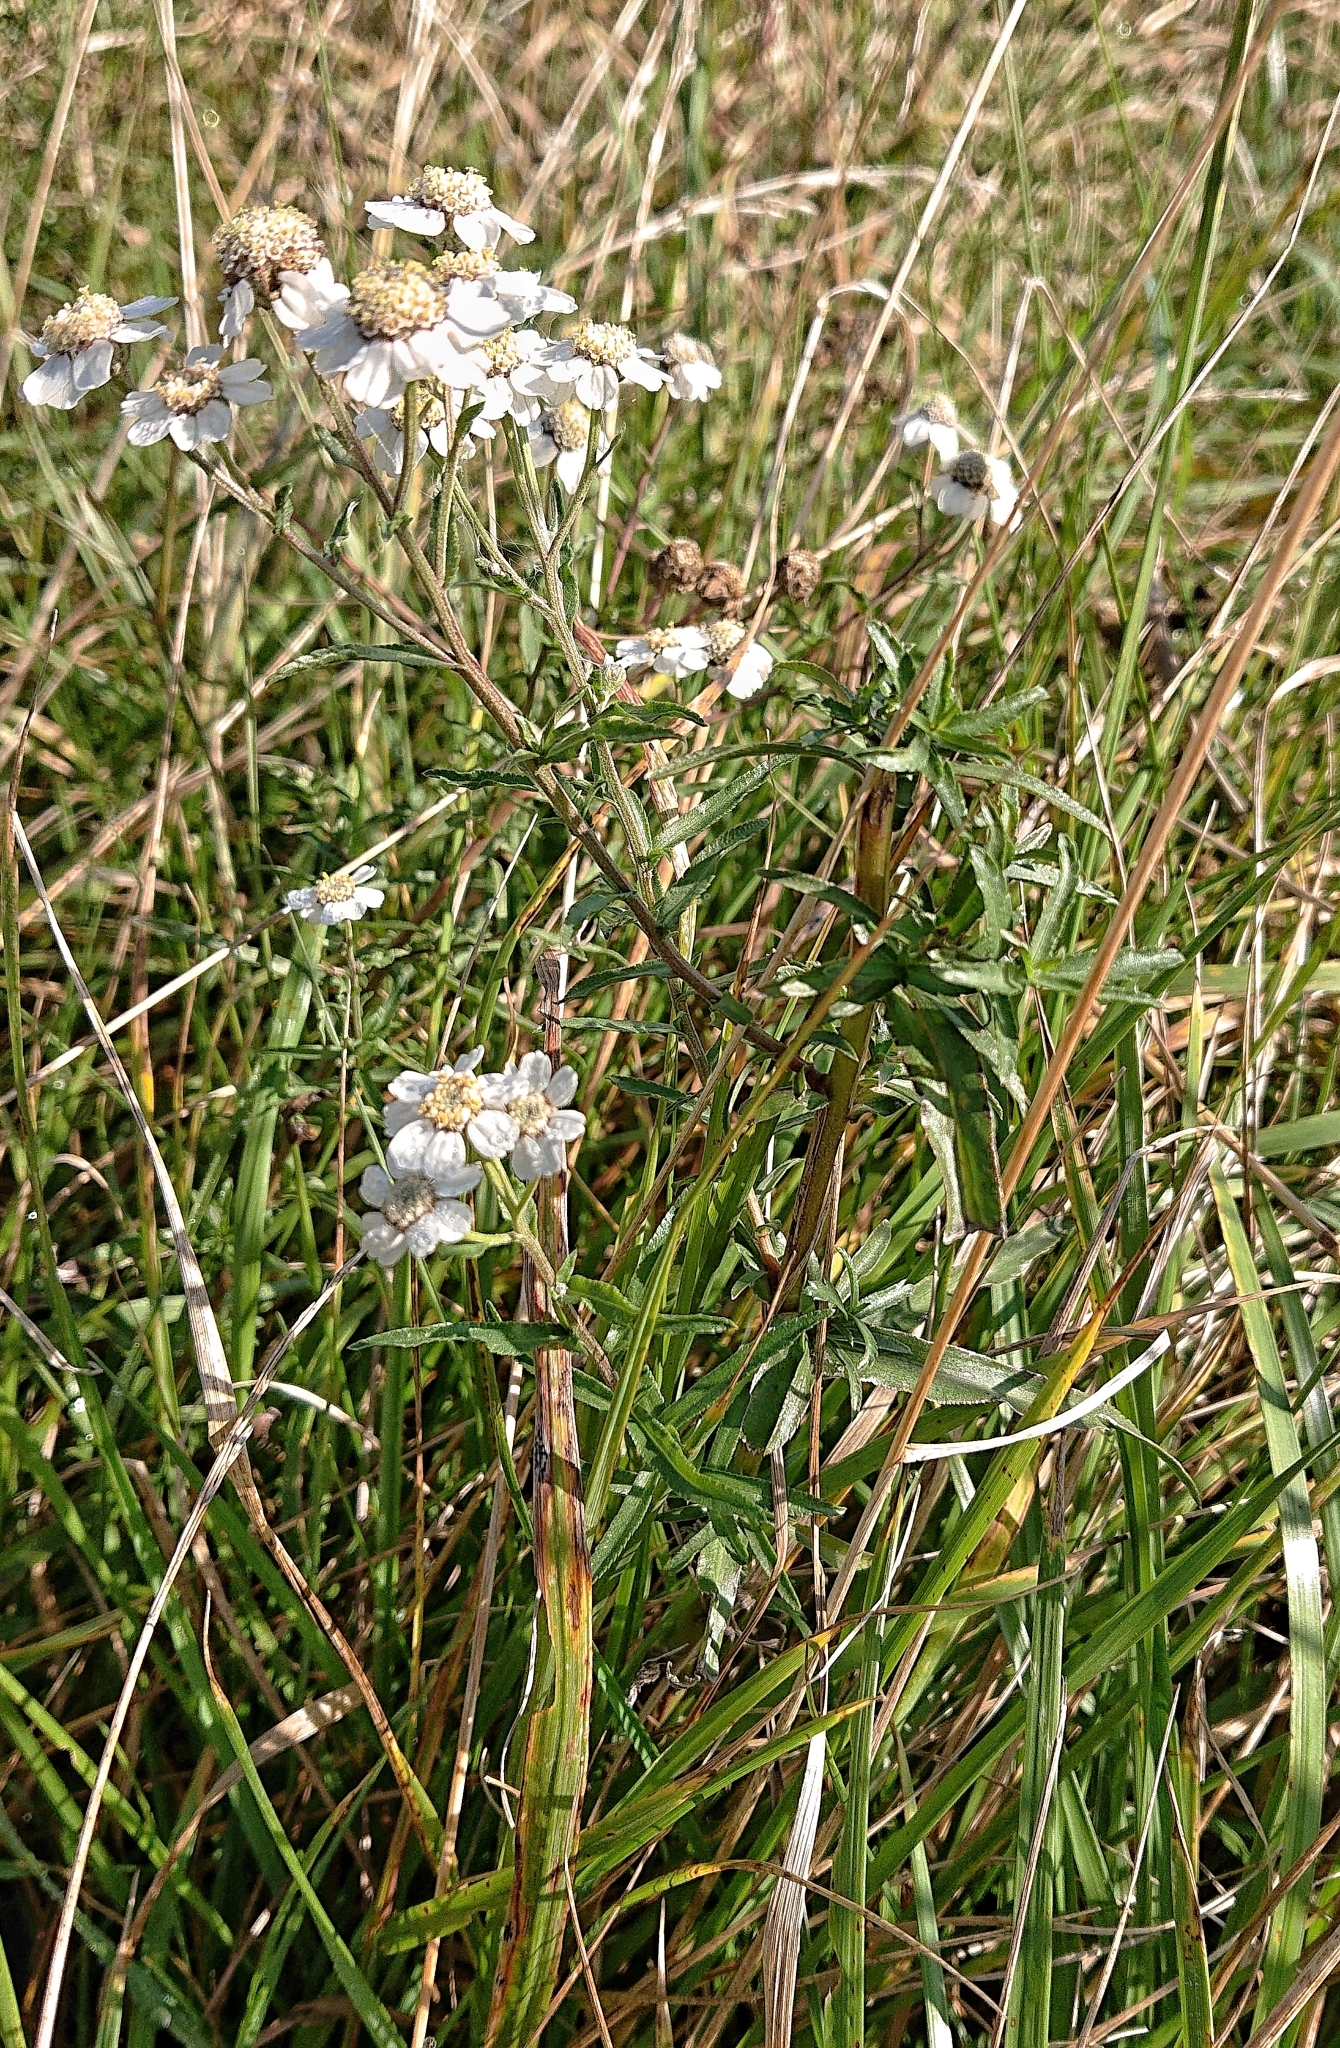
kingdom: Plantae
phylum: Tracheophyta
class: Magnoliopsida
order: Asterales
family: Asteraceae
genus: Achillea
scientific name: Achillea ptarmica
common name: Sneezeweed
